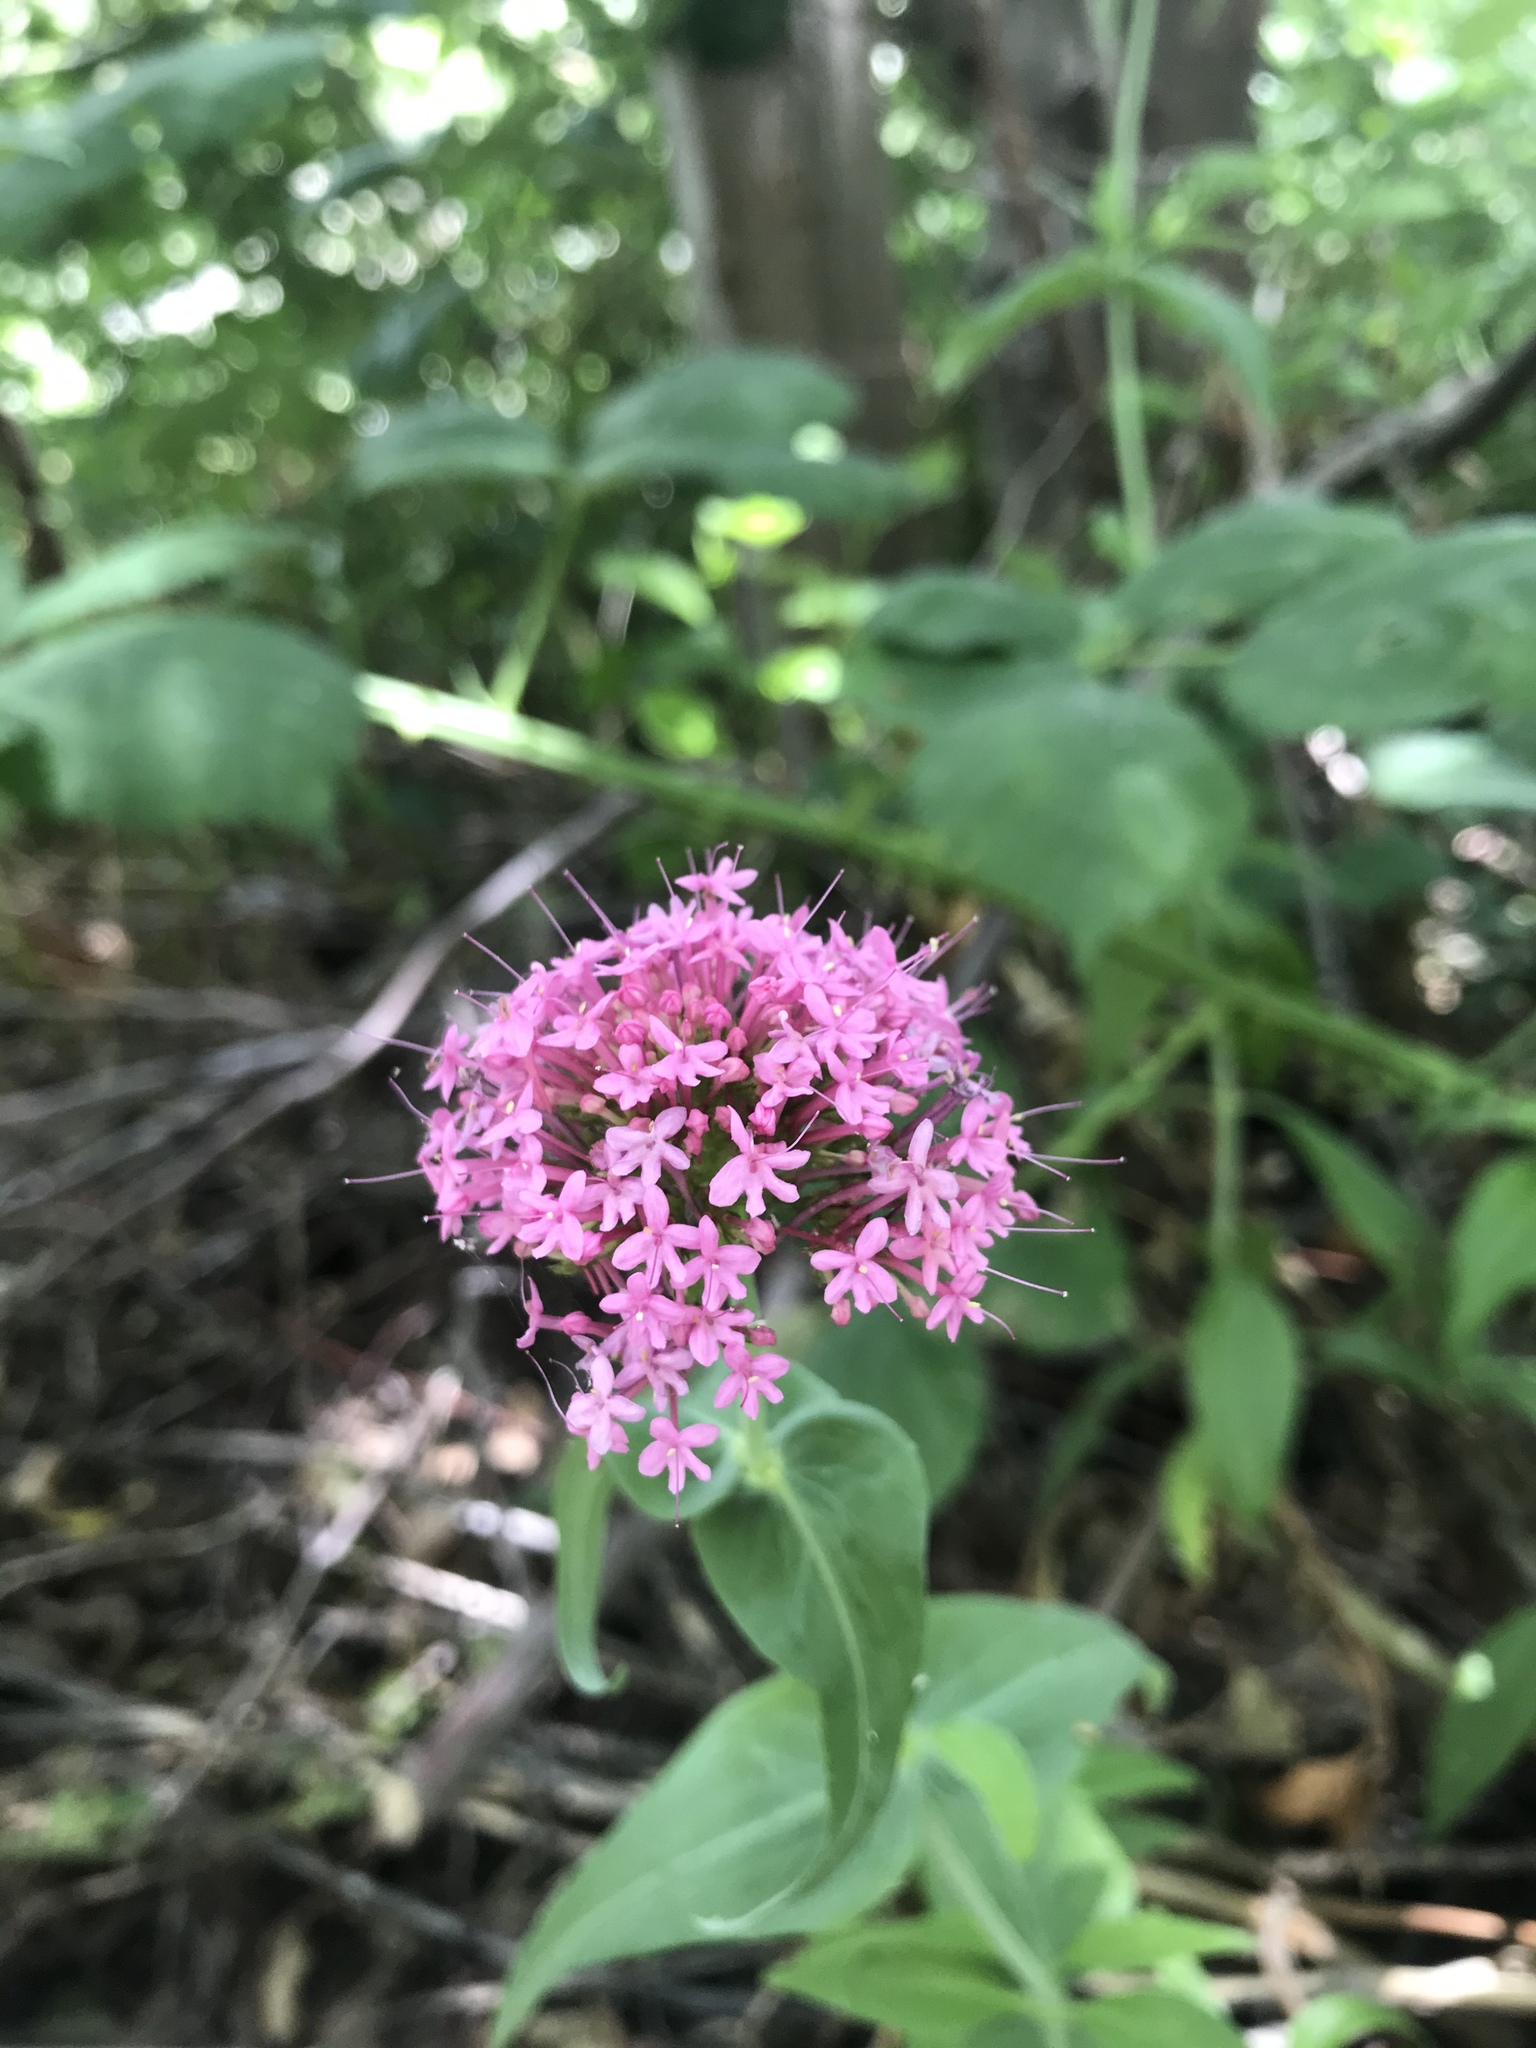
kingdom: Plantae
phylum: Tracheophyta
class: Magnoliopsida
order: Dipsacales
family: Caprifoliaceae
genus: Centranthus
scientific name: Centranthus ruber
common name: Red valerian
